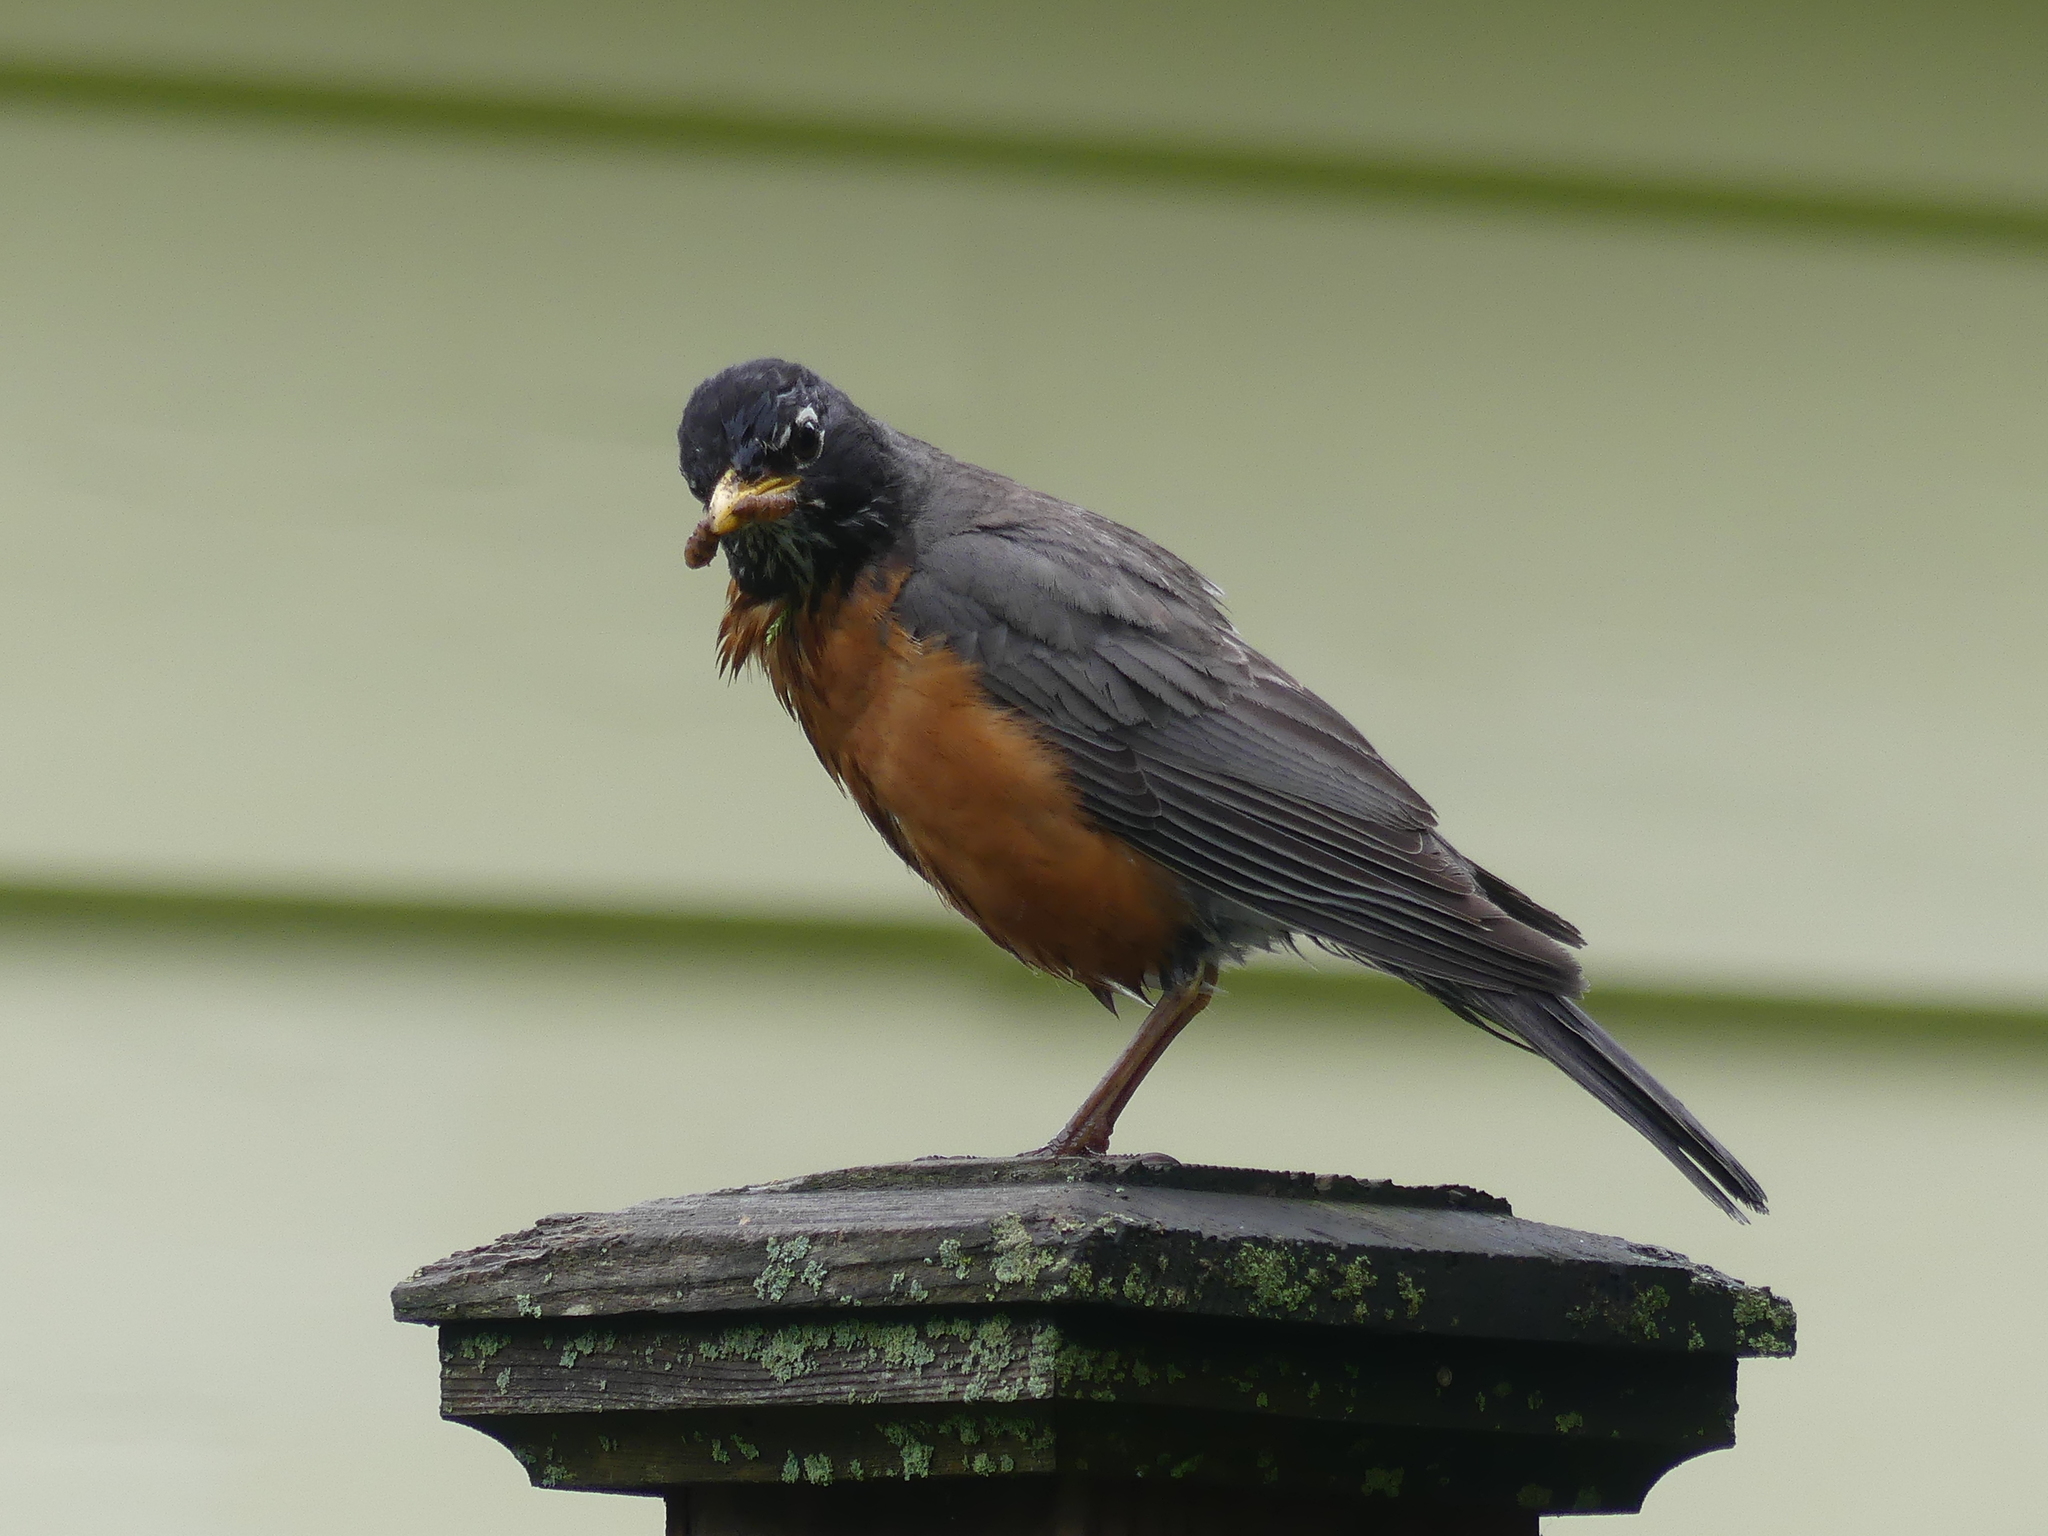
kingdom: Animalia
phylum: Chordata
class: Aves
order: Passeriformes
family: Turdidae
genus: Turdus
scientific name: Turdus migratorius
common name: American robin
